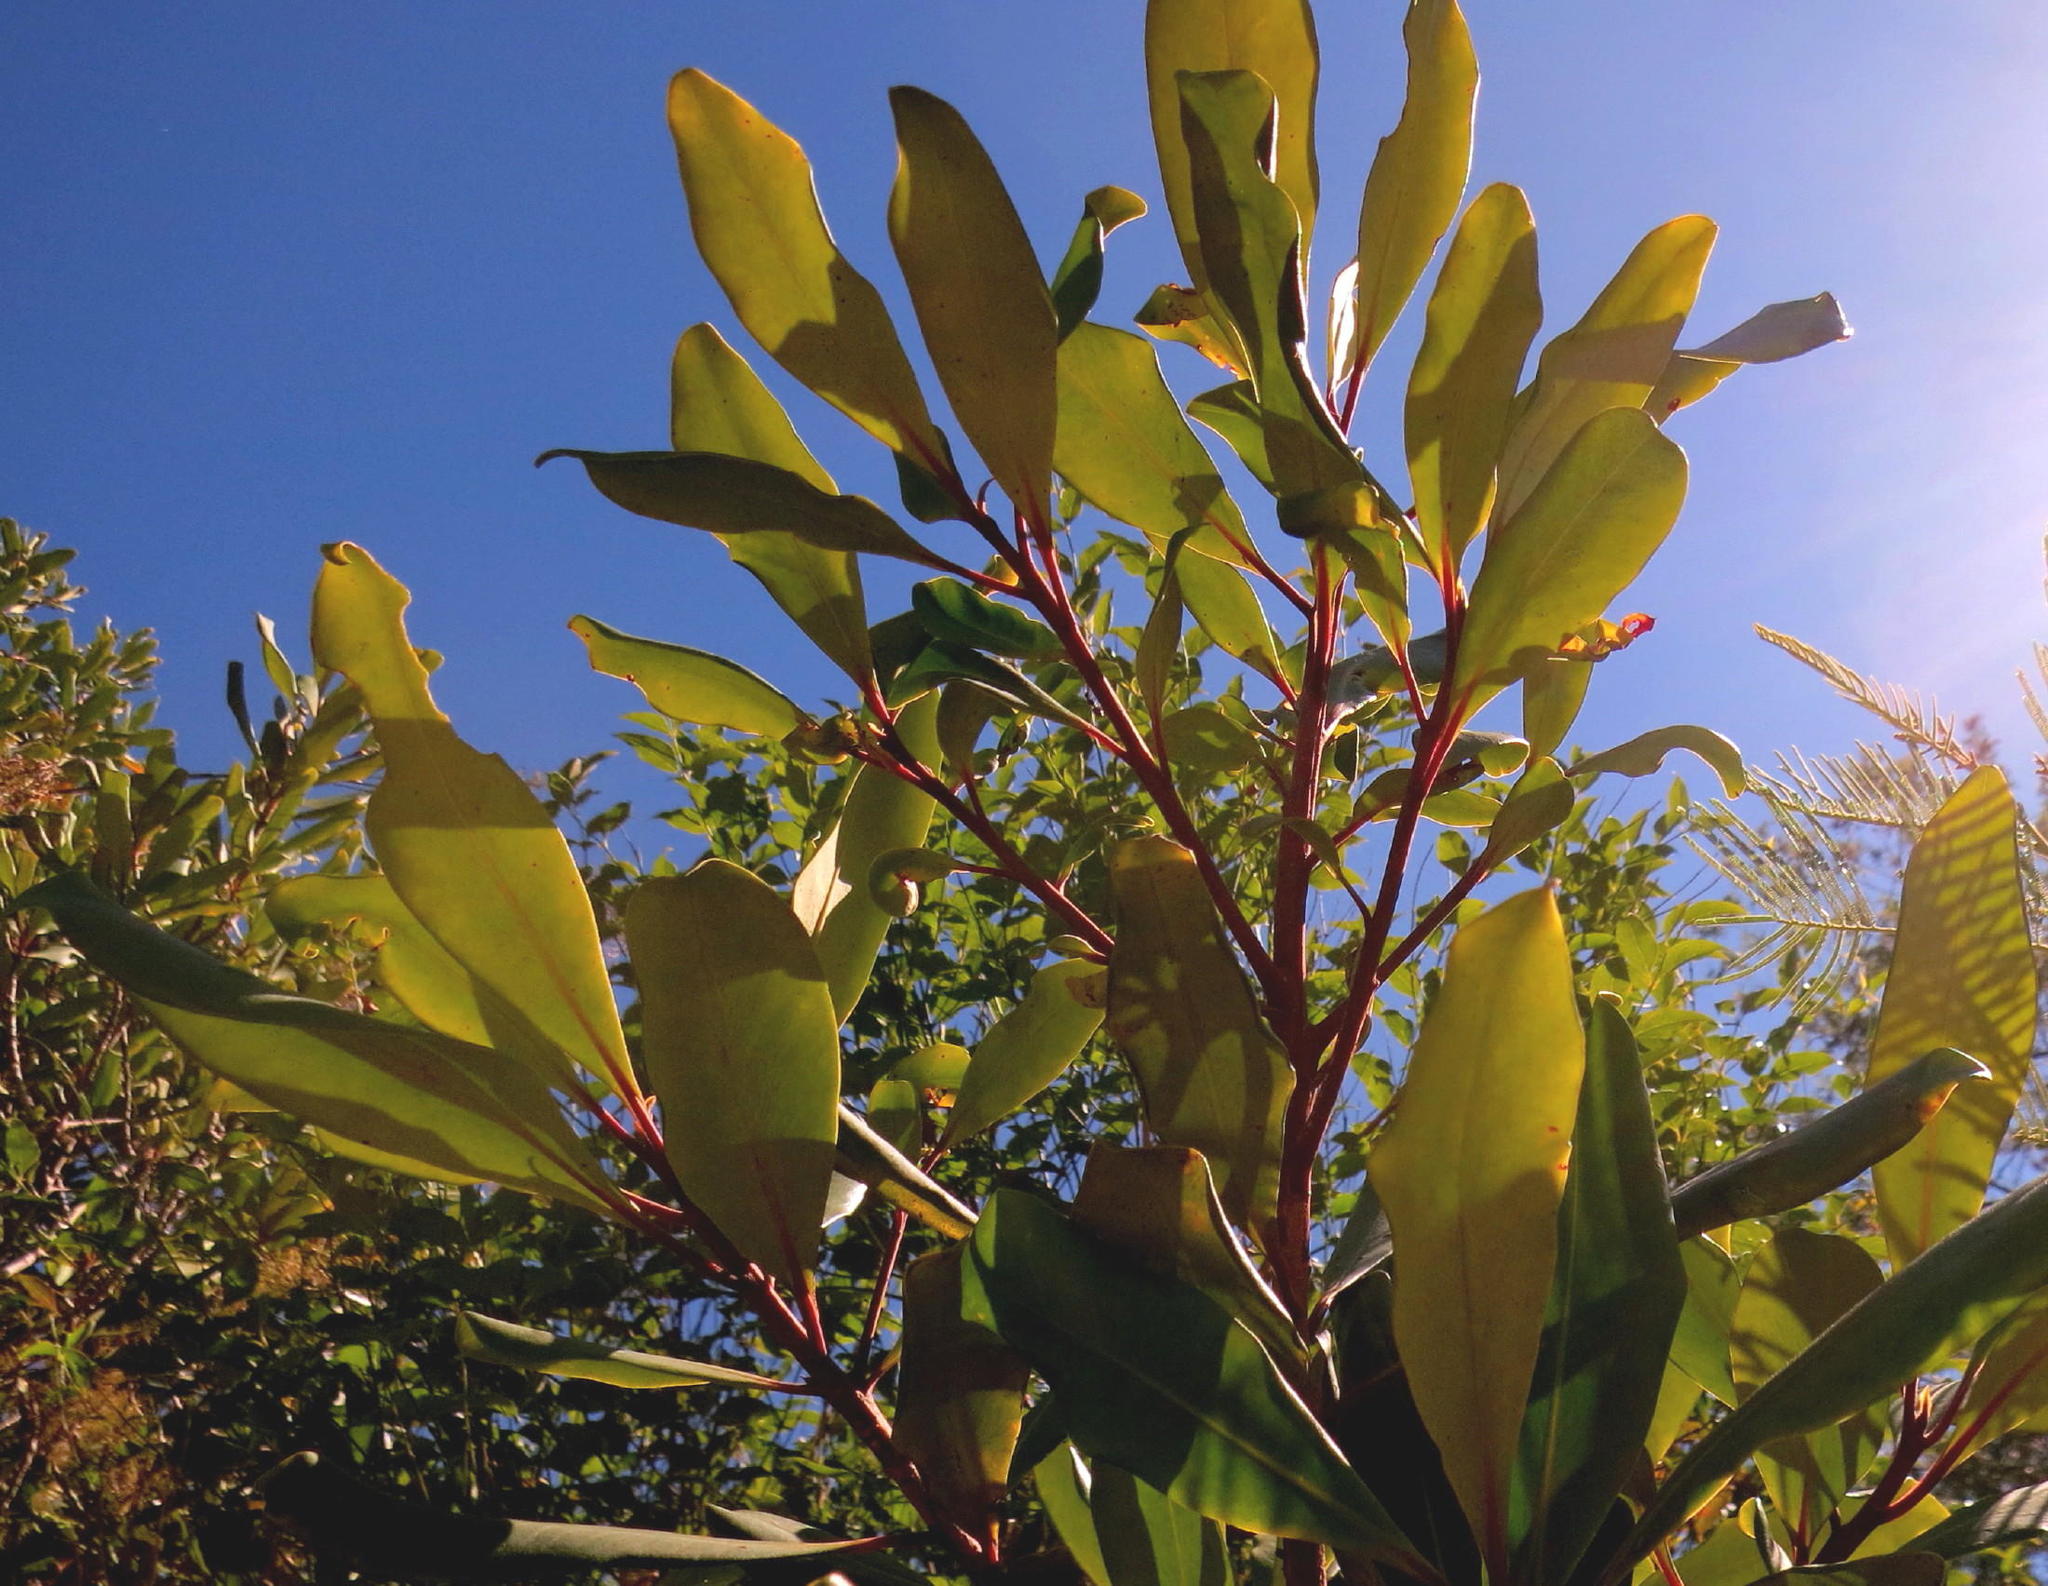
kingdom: Plantae
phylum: Tracheophyta
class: Magnoliopsida
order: Ericales
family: Primulaceae
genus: Myrsine
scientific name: Myrsine melanophloeos
